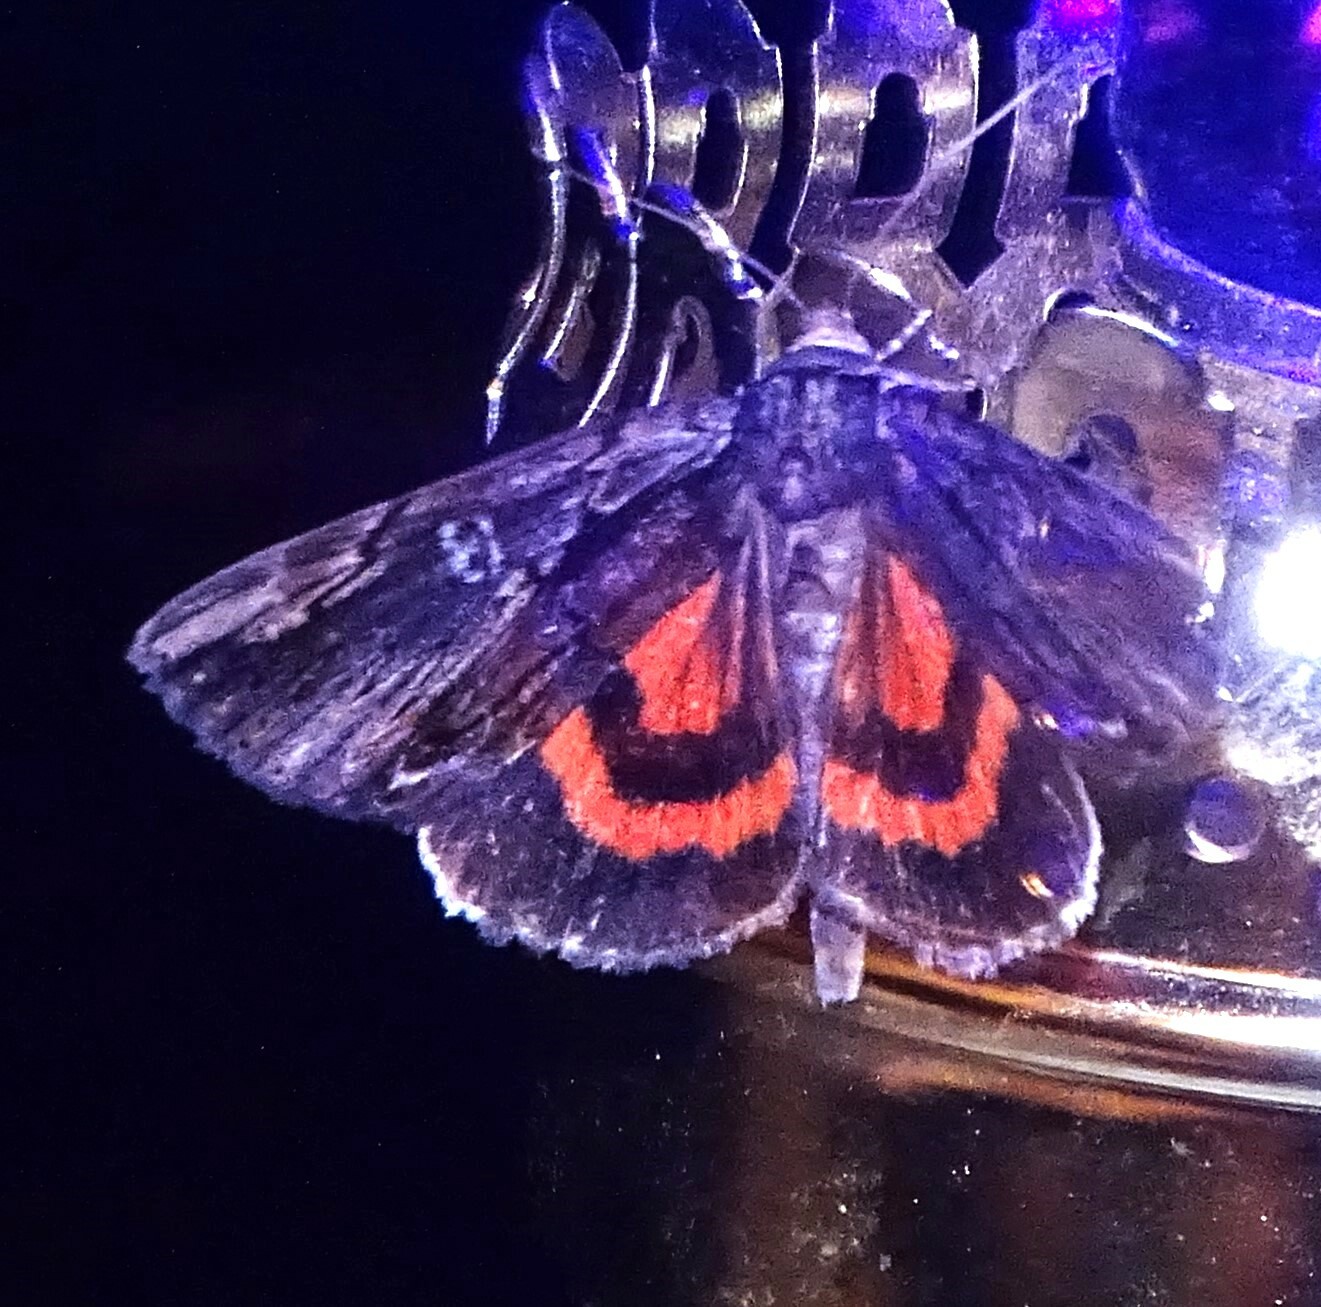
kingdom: Animalia
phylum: Arthropoda
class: Insecta
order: Lepidoptera
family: Erebidae
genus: Catocala
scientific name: Catocala ultronia
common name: Ultronia underwing
